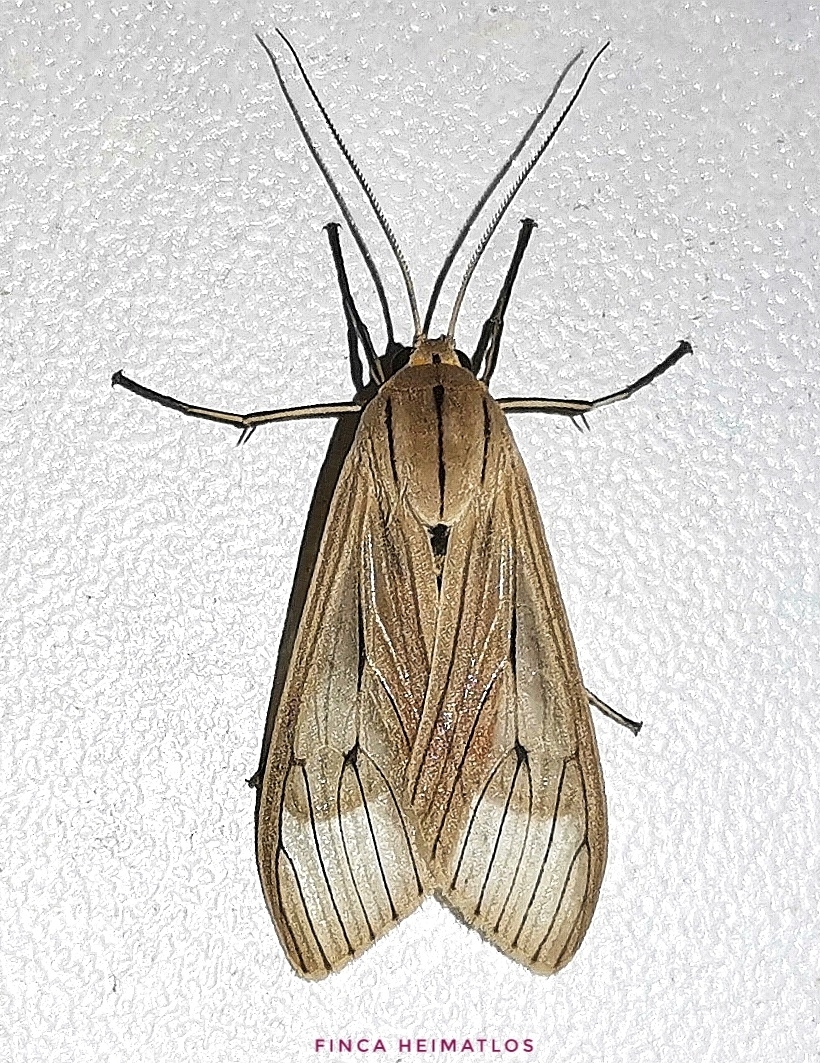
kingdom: Animalia
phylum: Arthropoda
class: Insecta
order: Lepidoptera
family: Erebidae
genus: Arctagyrta
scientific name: Arctagyrta Agaraea semivitrea
